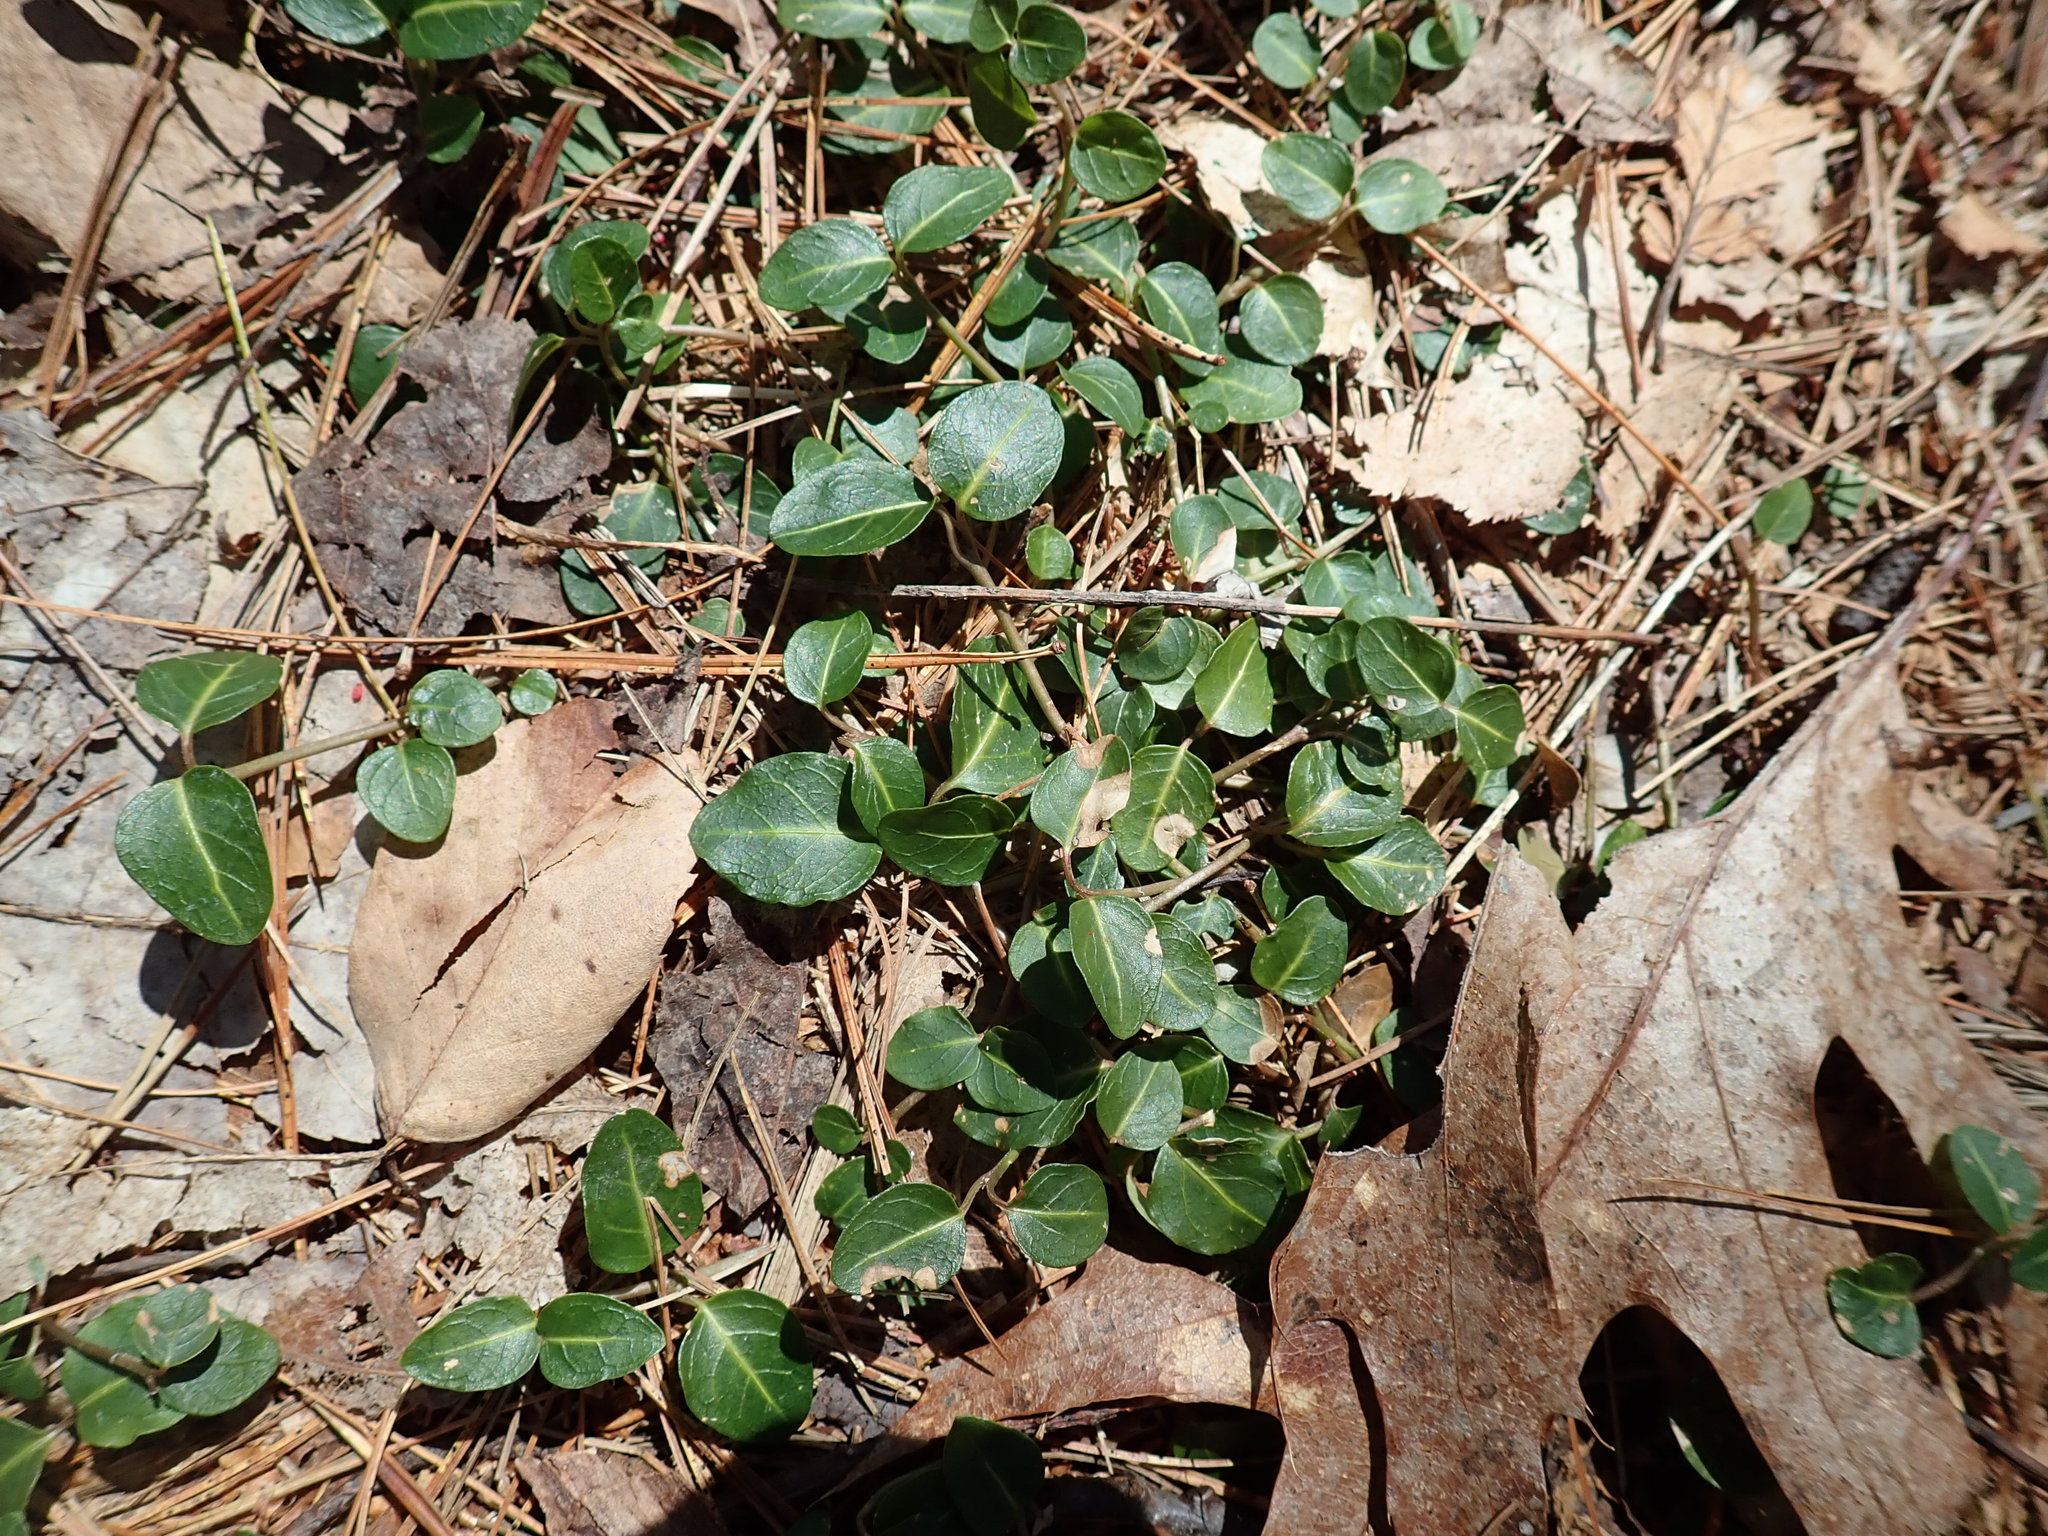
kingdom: Plantae
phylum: Tracheophyta
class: Magnoliopsida
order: Gentianales
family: Rubiaceae
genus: Mitchella
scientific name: Mitchella repens
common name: Partridge-berry
